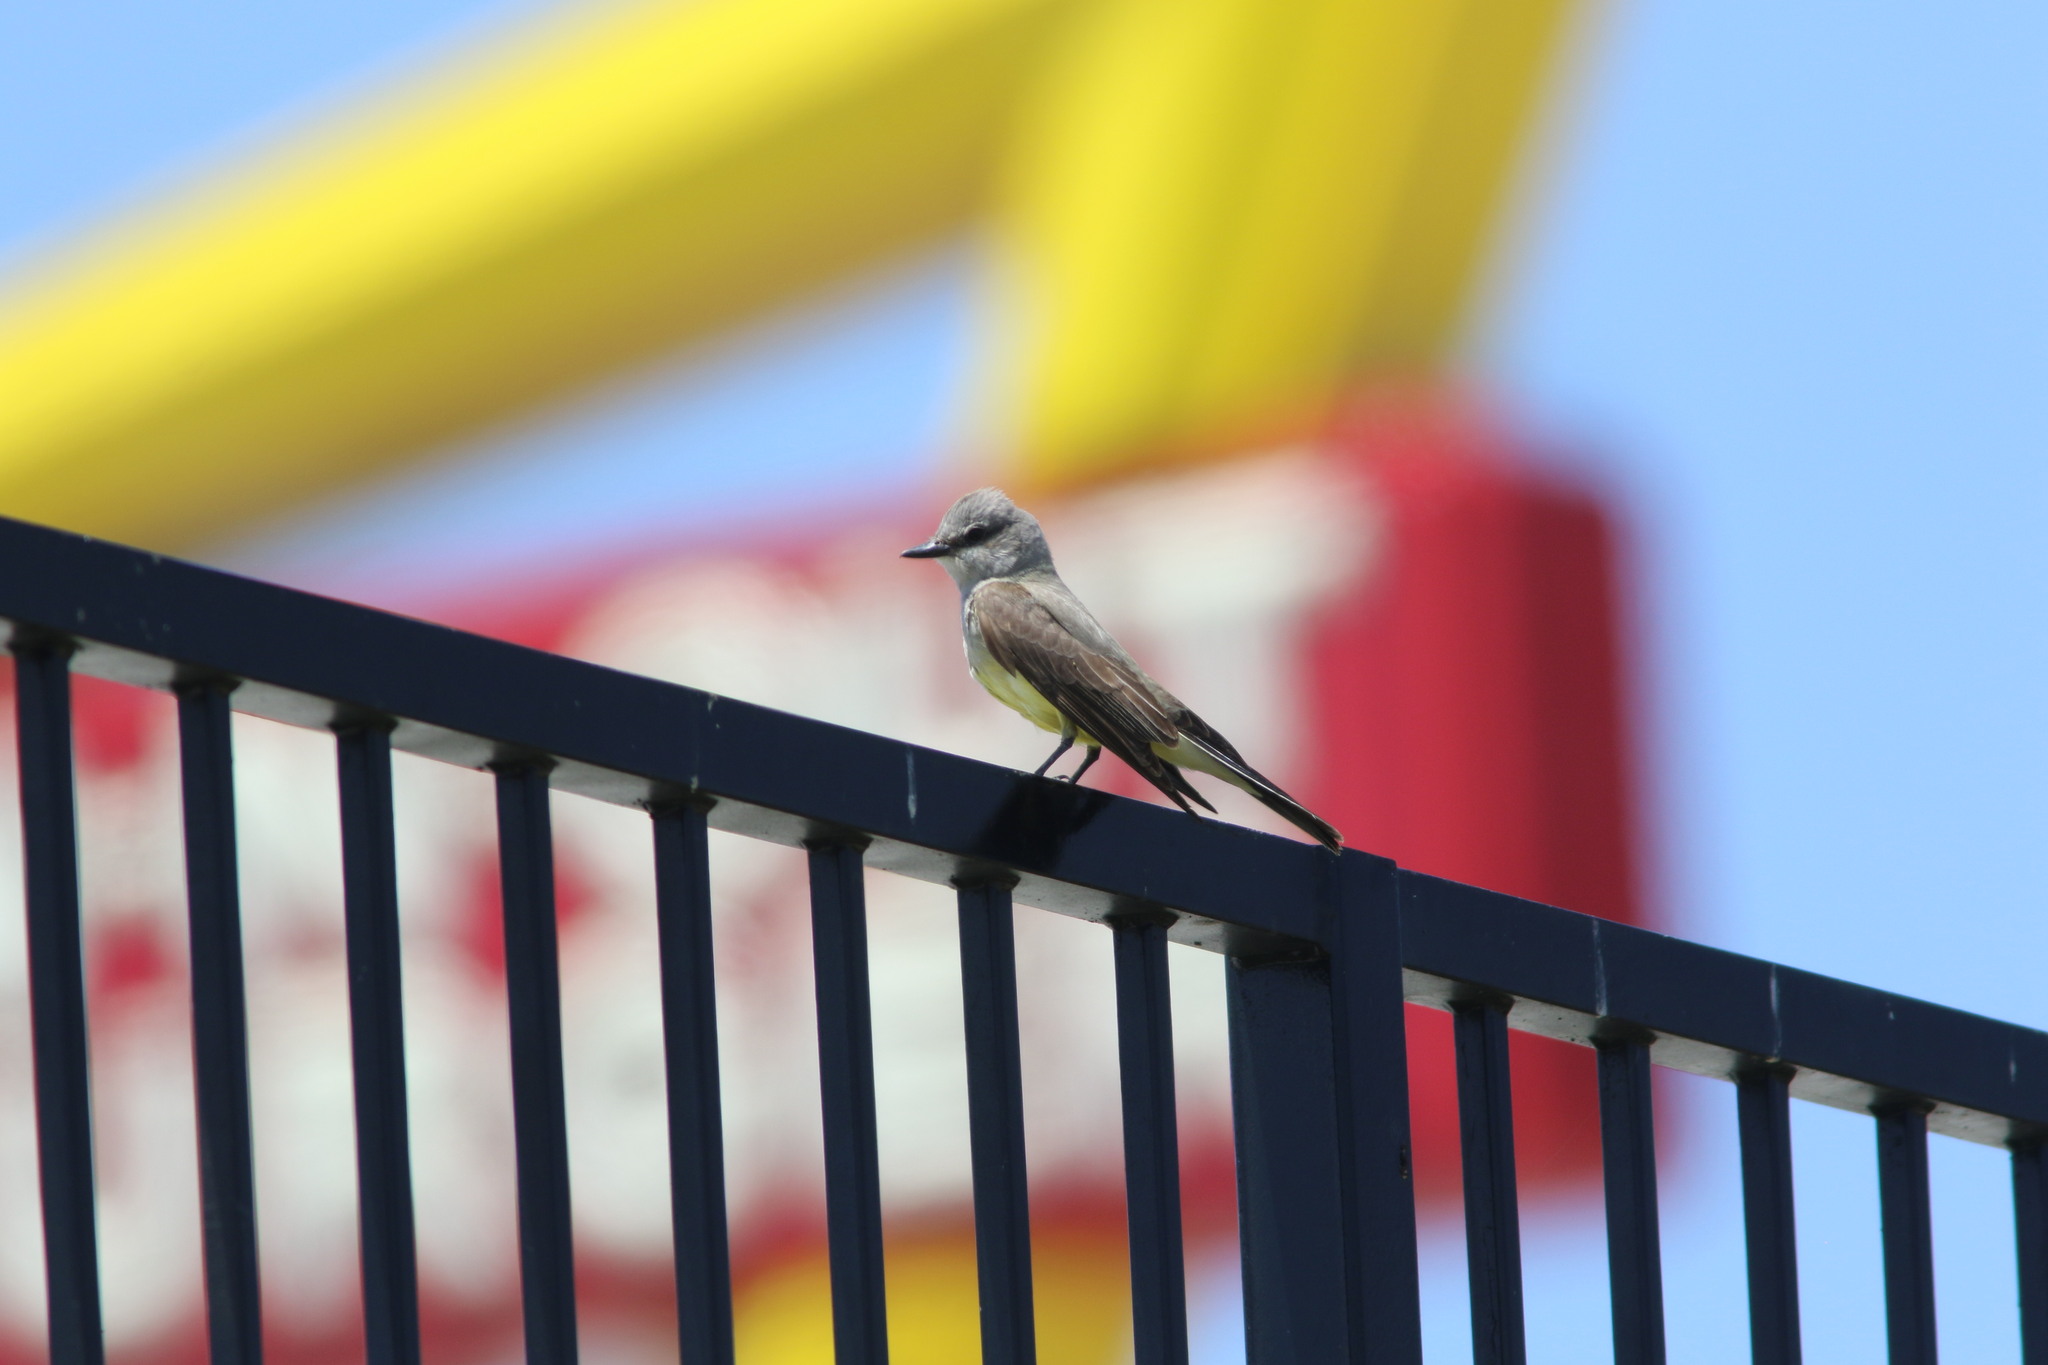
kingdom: Animalia
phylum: Chordata
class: Aves
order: Passeriformes
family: Tyrannidae
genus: Tyrannus
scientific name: Tyrannus verticalis
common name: Western kingbird
